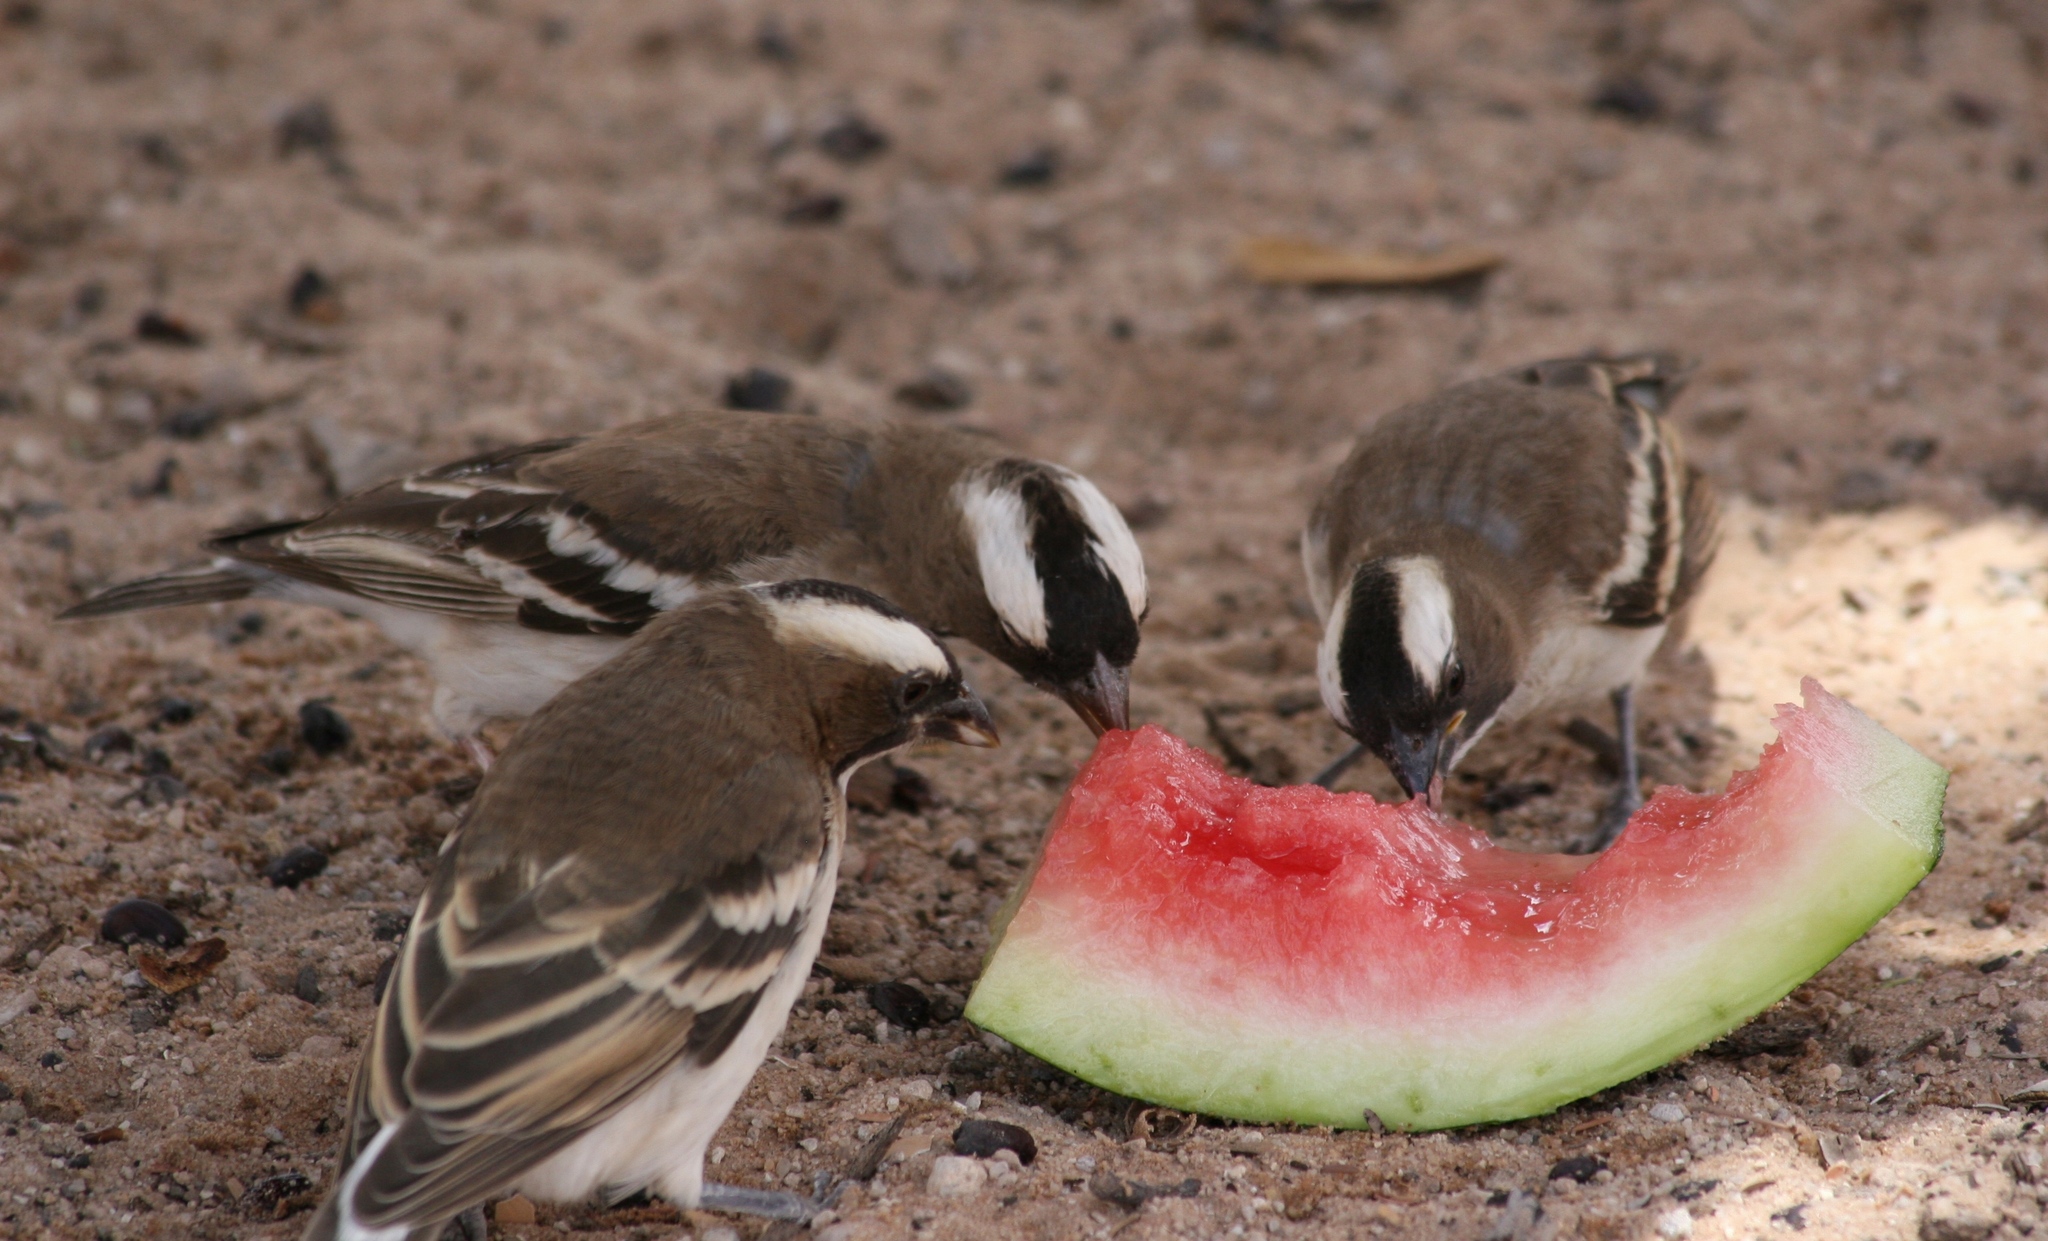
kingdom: Animalia
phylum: Chordata
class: Aves
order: Passeriformes
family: Passeridae
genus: Plocepasser
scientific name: Plocepasser mahali
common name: White-browed sparrow-weaver
